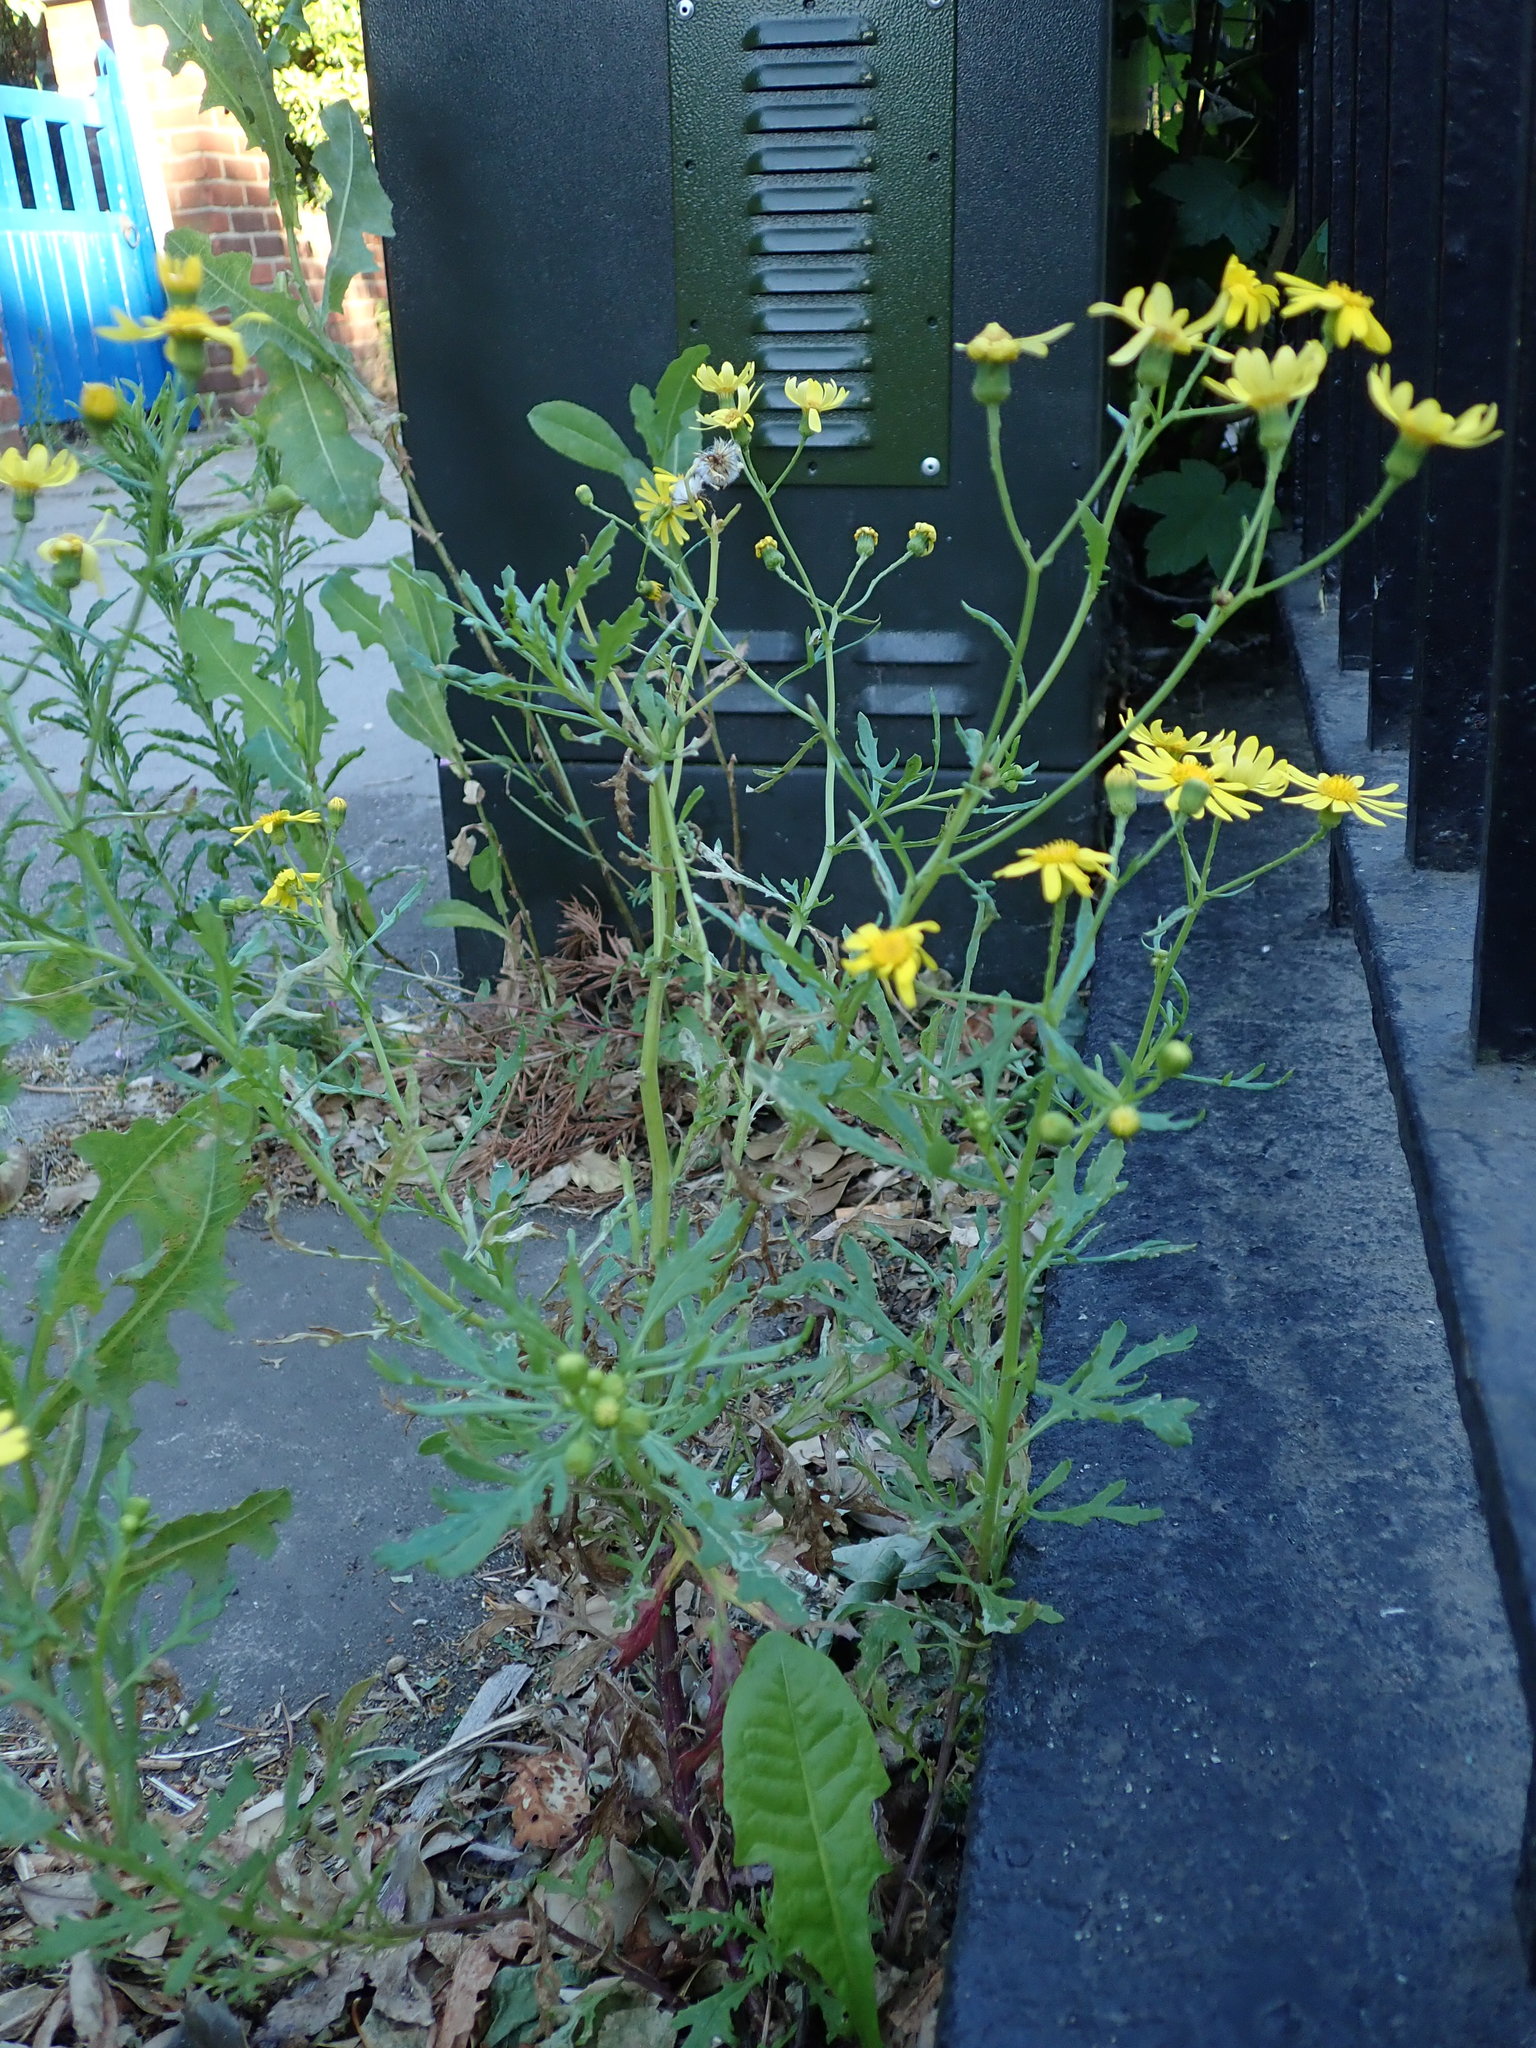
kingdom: Plantae
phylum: Tracheophyta
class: Magnoliopsida
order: Asterales
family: Asteraceae
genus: Senecio
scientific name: Senecio squalidus
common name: Oxford ragwort
